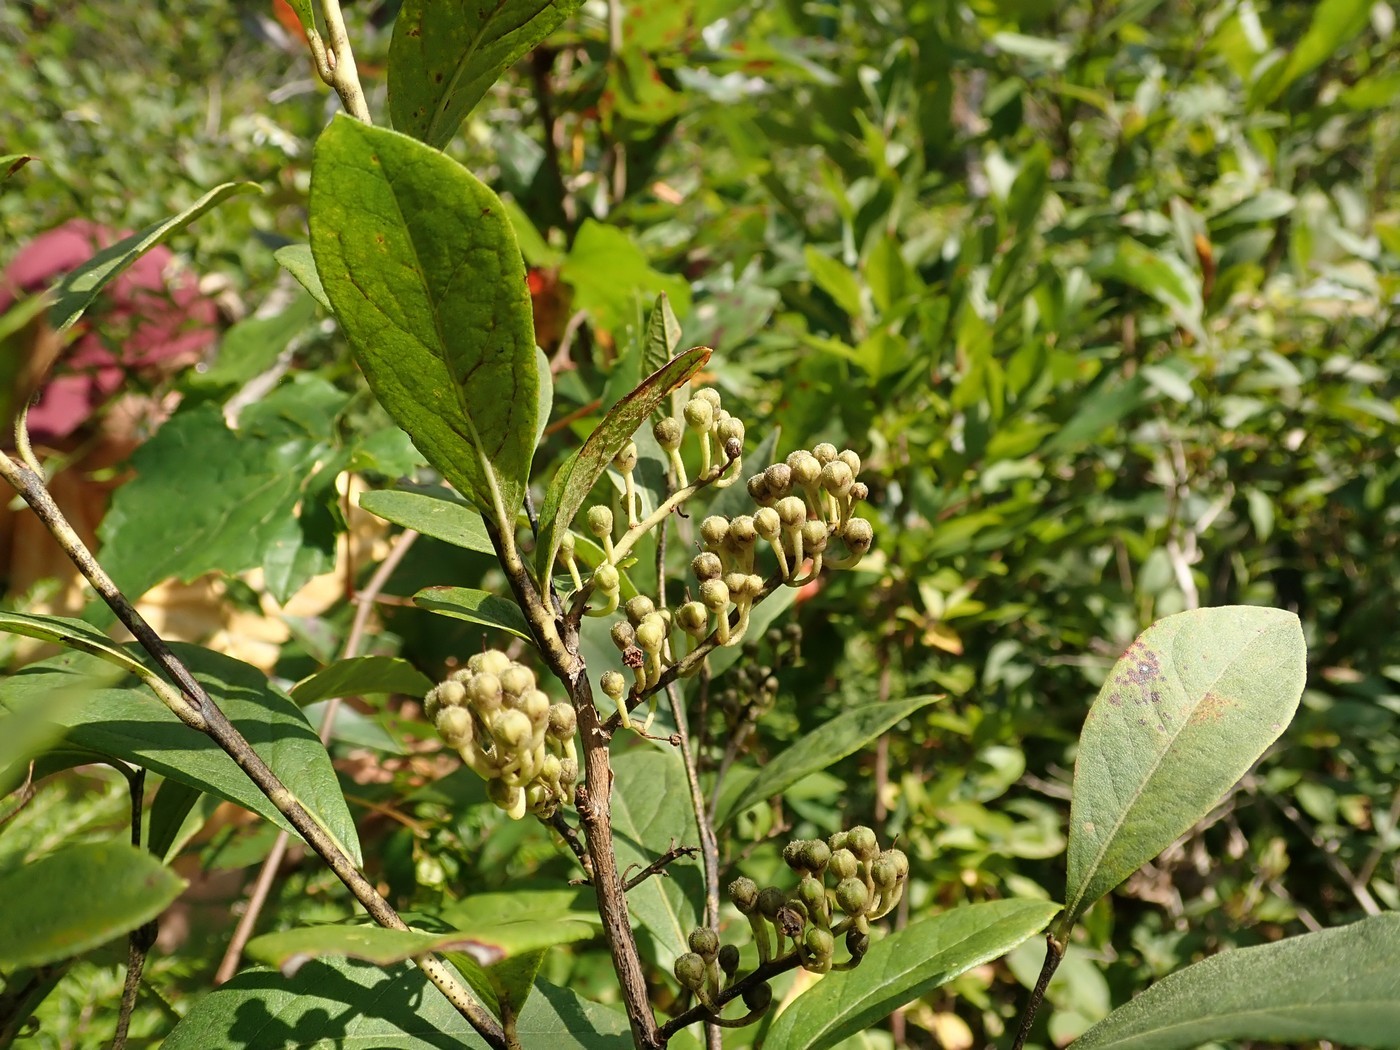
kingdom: Plantae
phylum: Tracheophyta
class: Magnoliopsida
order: Ericales
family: Ericaceae
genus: Lyonia
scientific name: Lyonia ligustrina
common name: Maleberry
